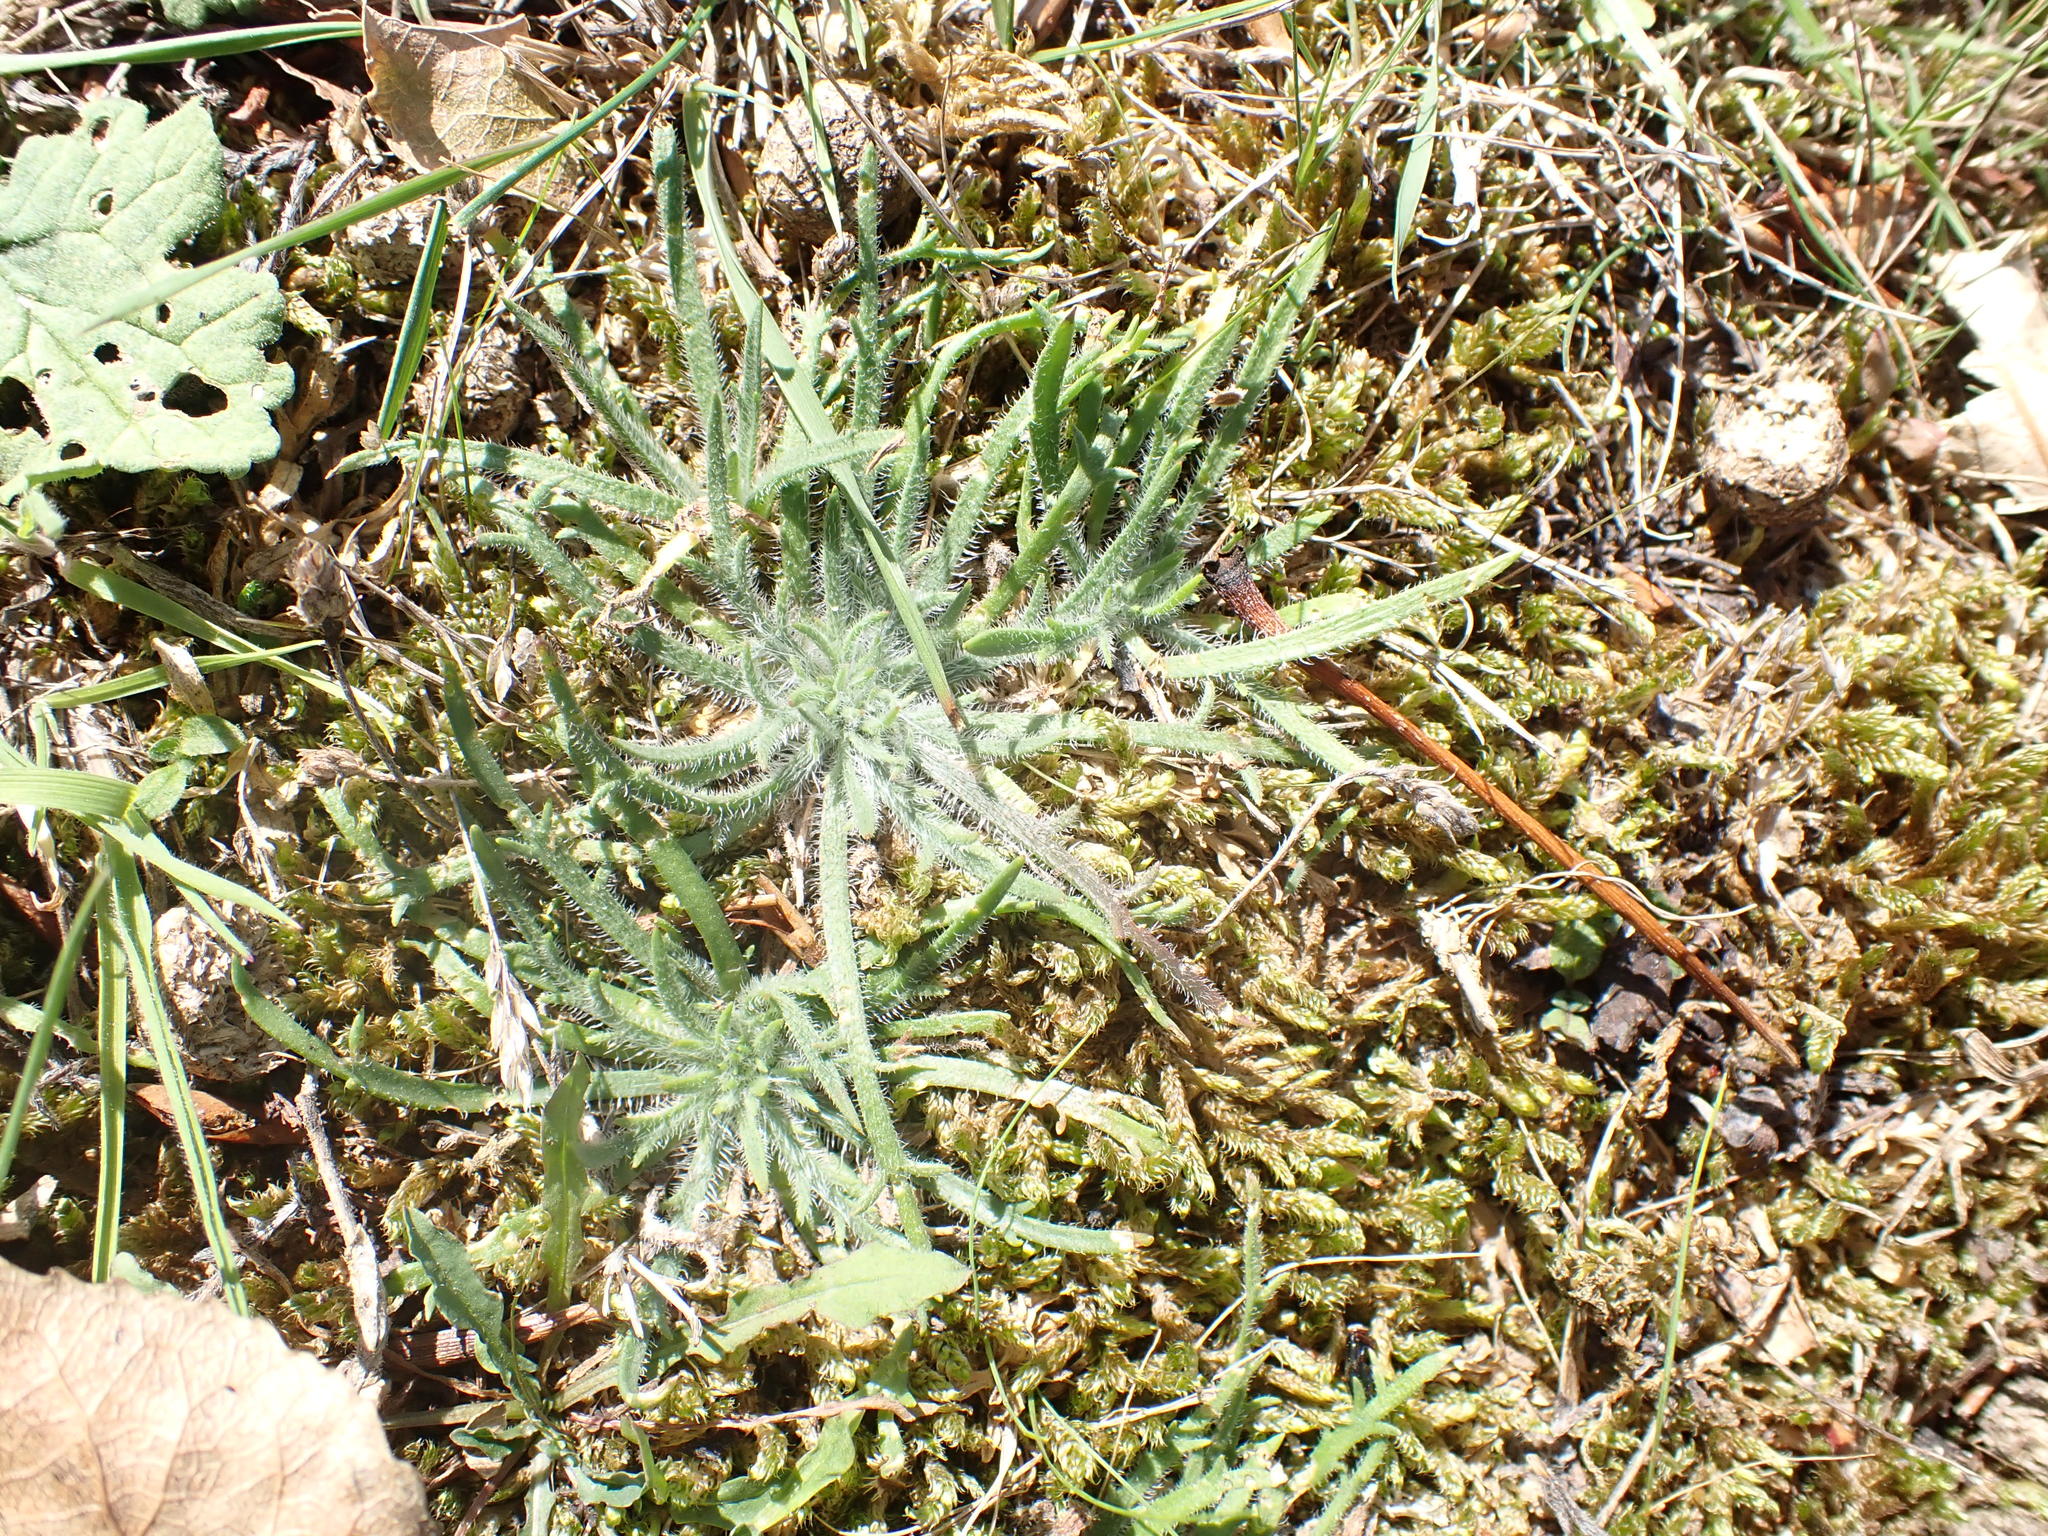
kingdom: Plantae
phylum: Tracheophyta
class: Magnoliopsida
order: Lamiales
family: Plantaginaceae
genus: Plantago
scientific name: Plantago coronopus
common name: Buck's-horn plantain
